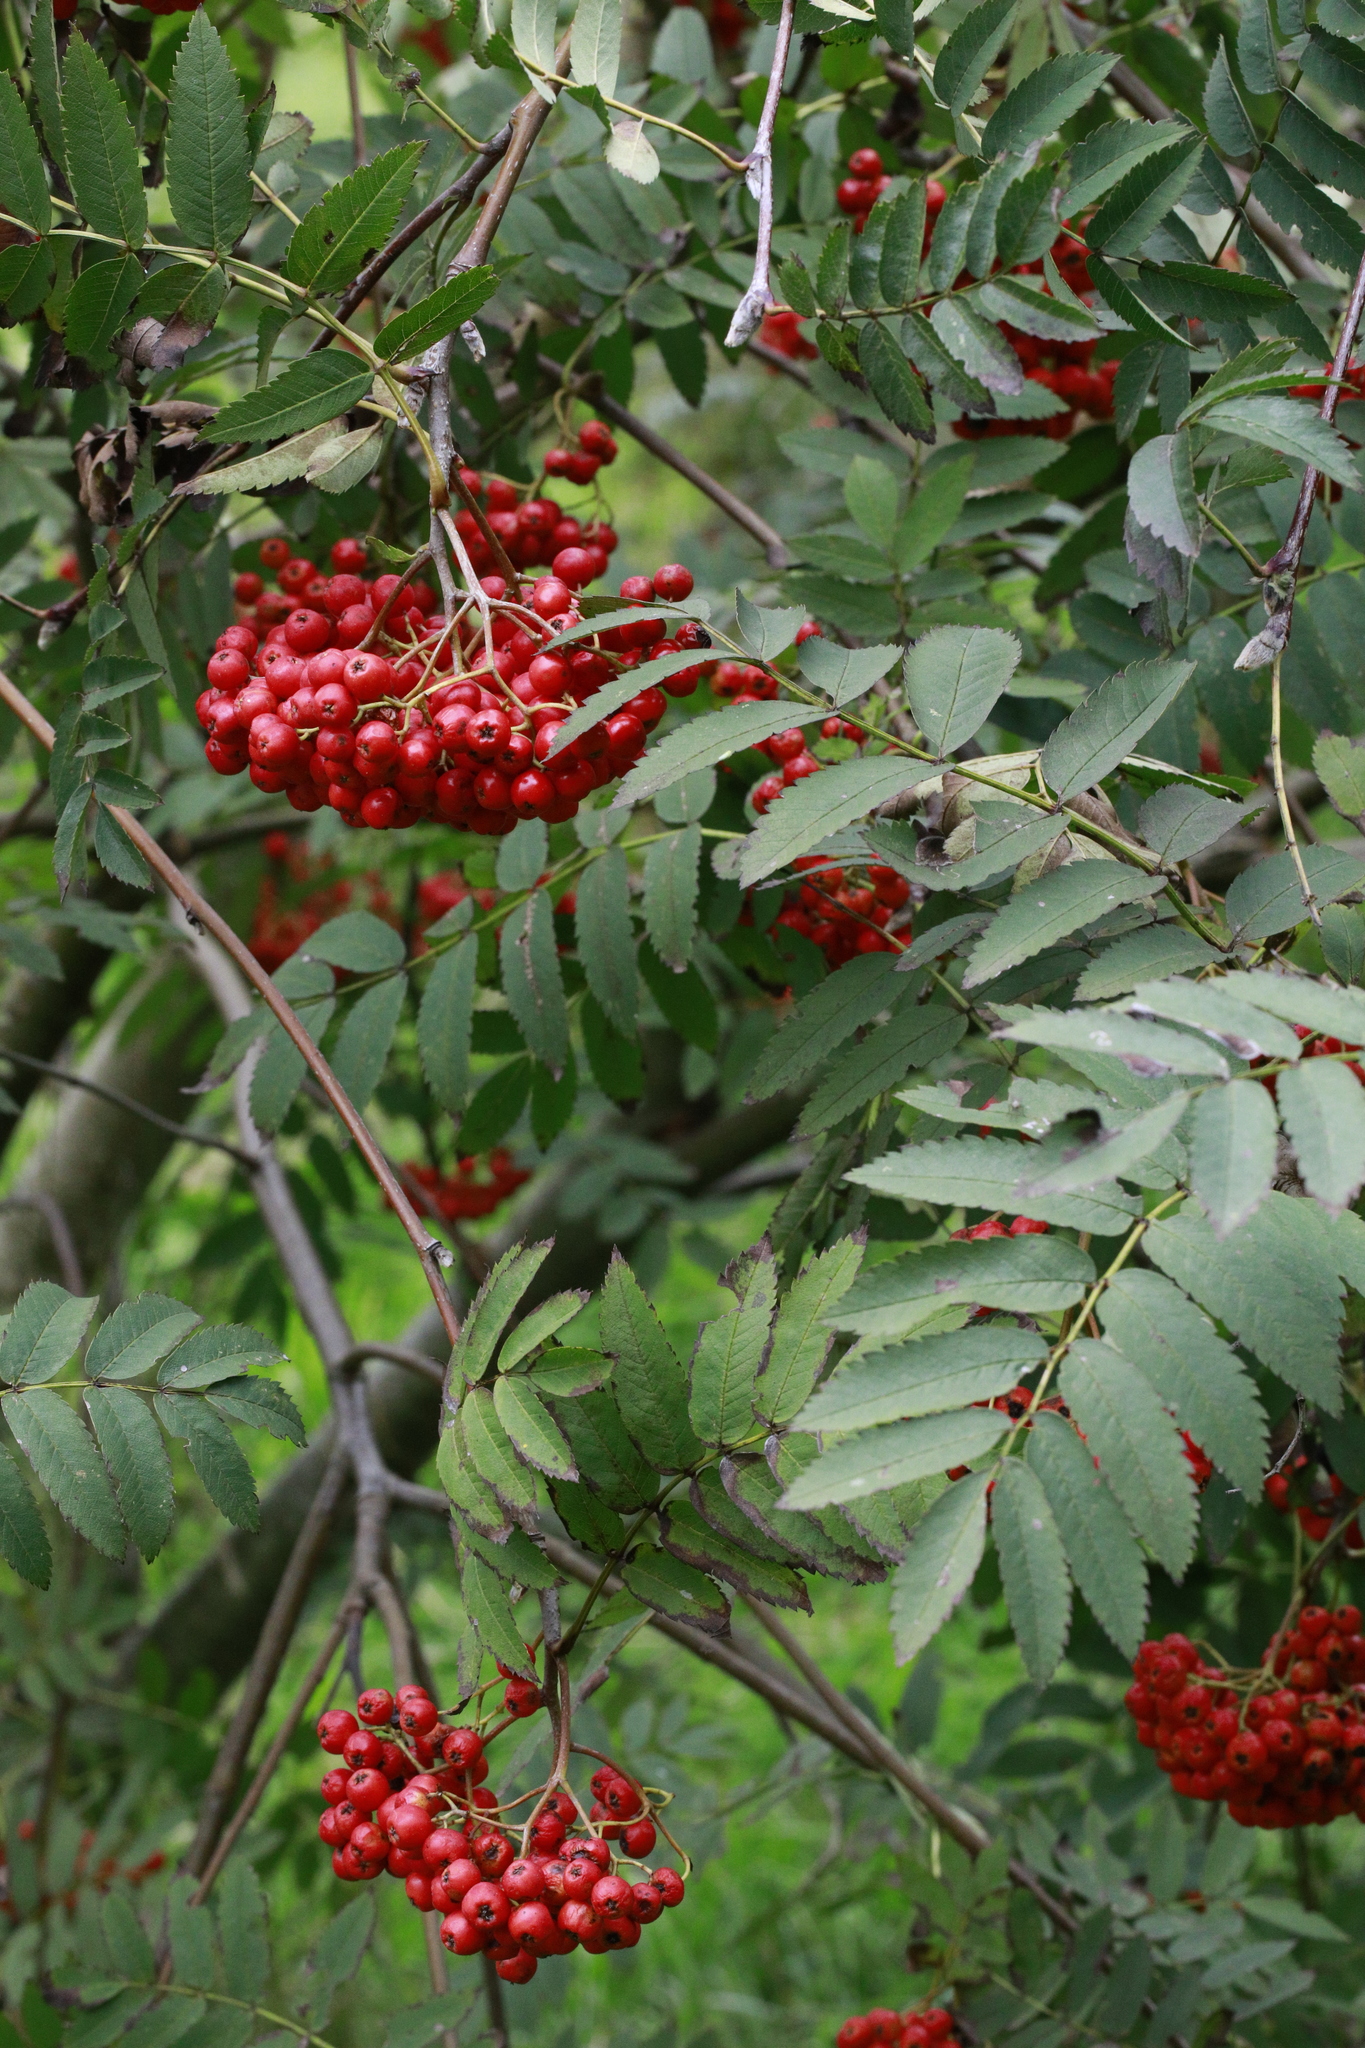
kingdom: Plantae
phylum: Tracheophyta
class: Magnoliopsida
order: Rosales
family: Rosaceae
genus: Sorbus
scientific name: Sorbus aucuparia
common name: Rowan
